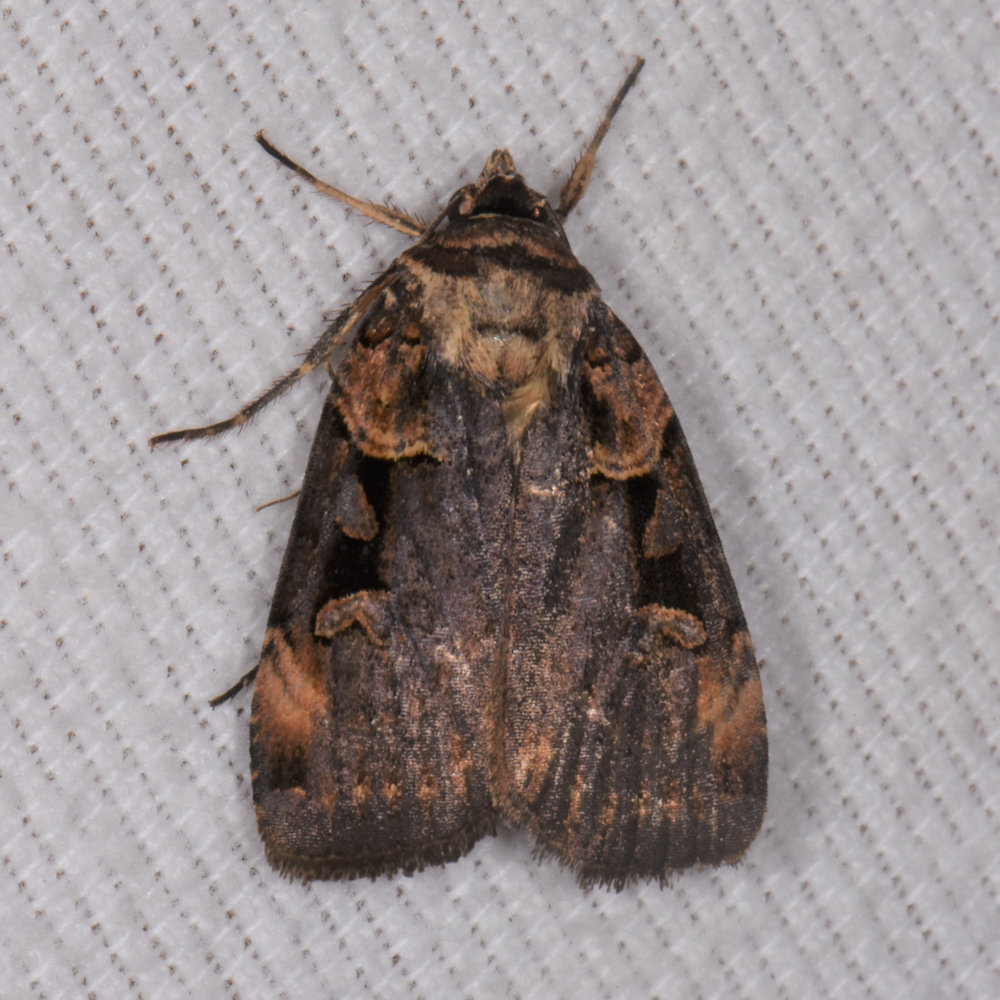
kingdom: Animalia
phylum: Arthropoda
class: Insecta
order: Lepidoptera
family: Noctuidae
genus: Pseudohermonassa
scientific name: Pseudohermonassa bicarnea
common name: Pink spotted dart
